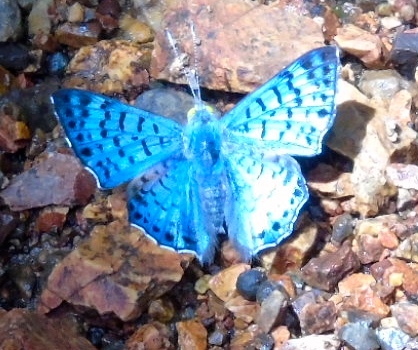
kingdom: Animalia
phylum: Arthropoda
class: Insecta
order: Lepidoptera
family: Riodinidae
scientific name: Riodinidae
